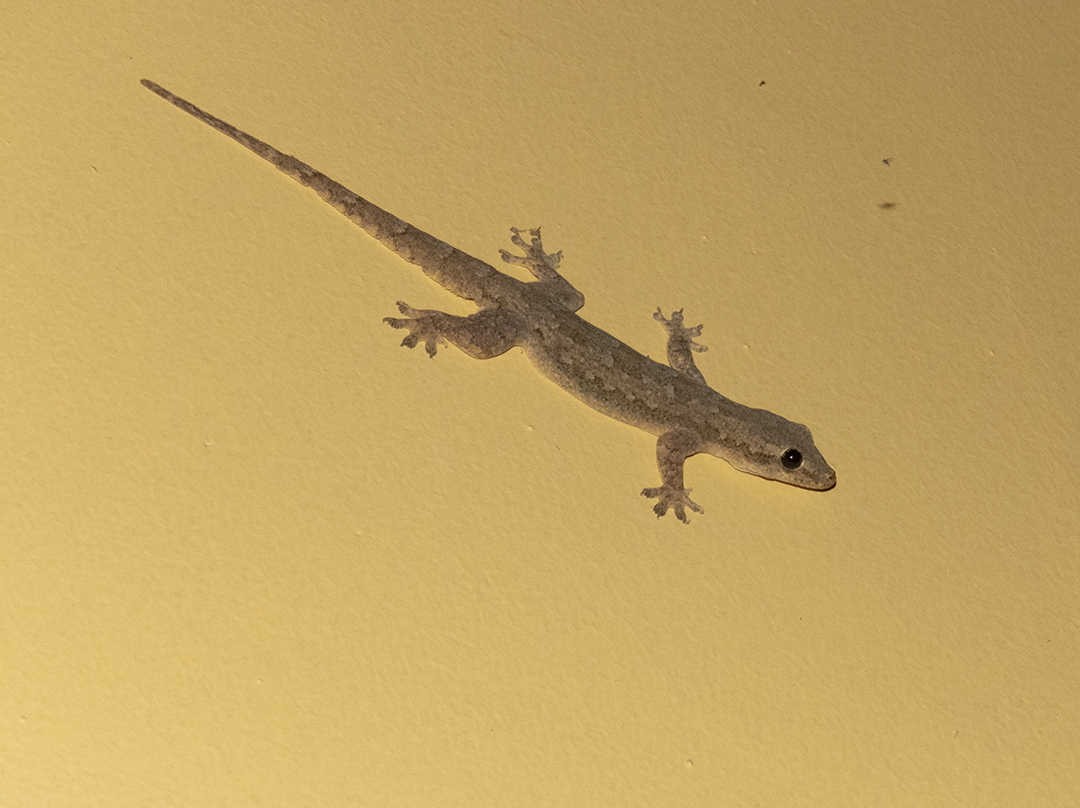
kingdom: Animalia
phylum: Chordata
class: Squamata
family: Gekkonidae
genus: Hemidactylus
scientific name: Hemidactylus platyurus
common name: Flat-tailed house gecko
